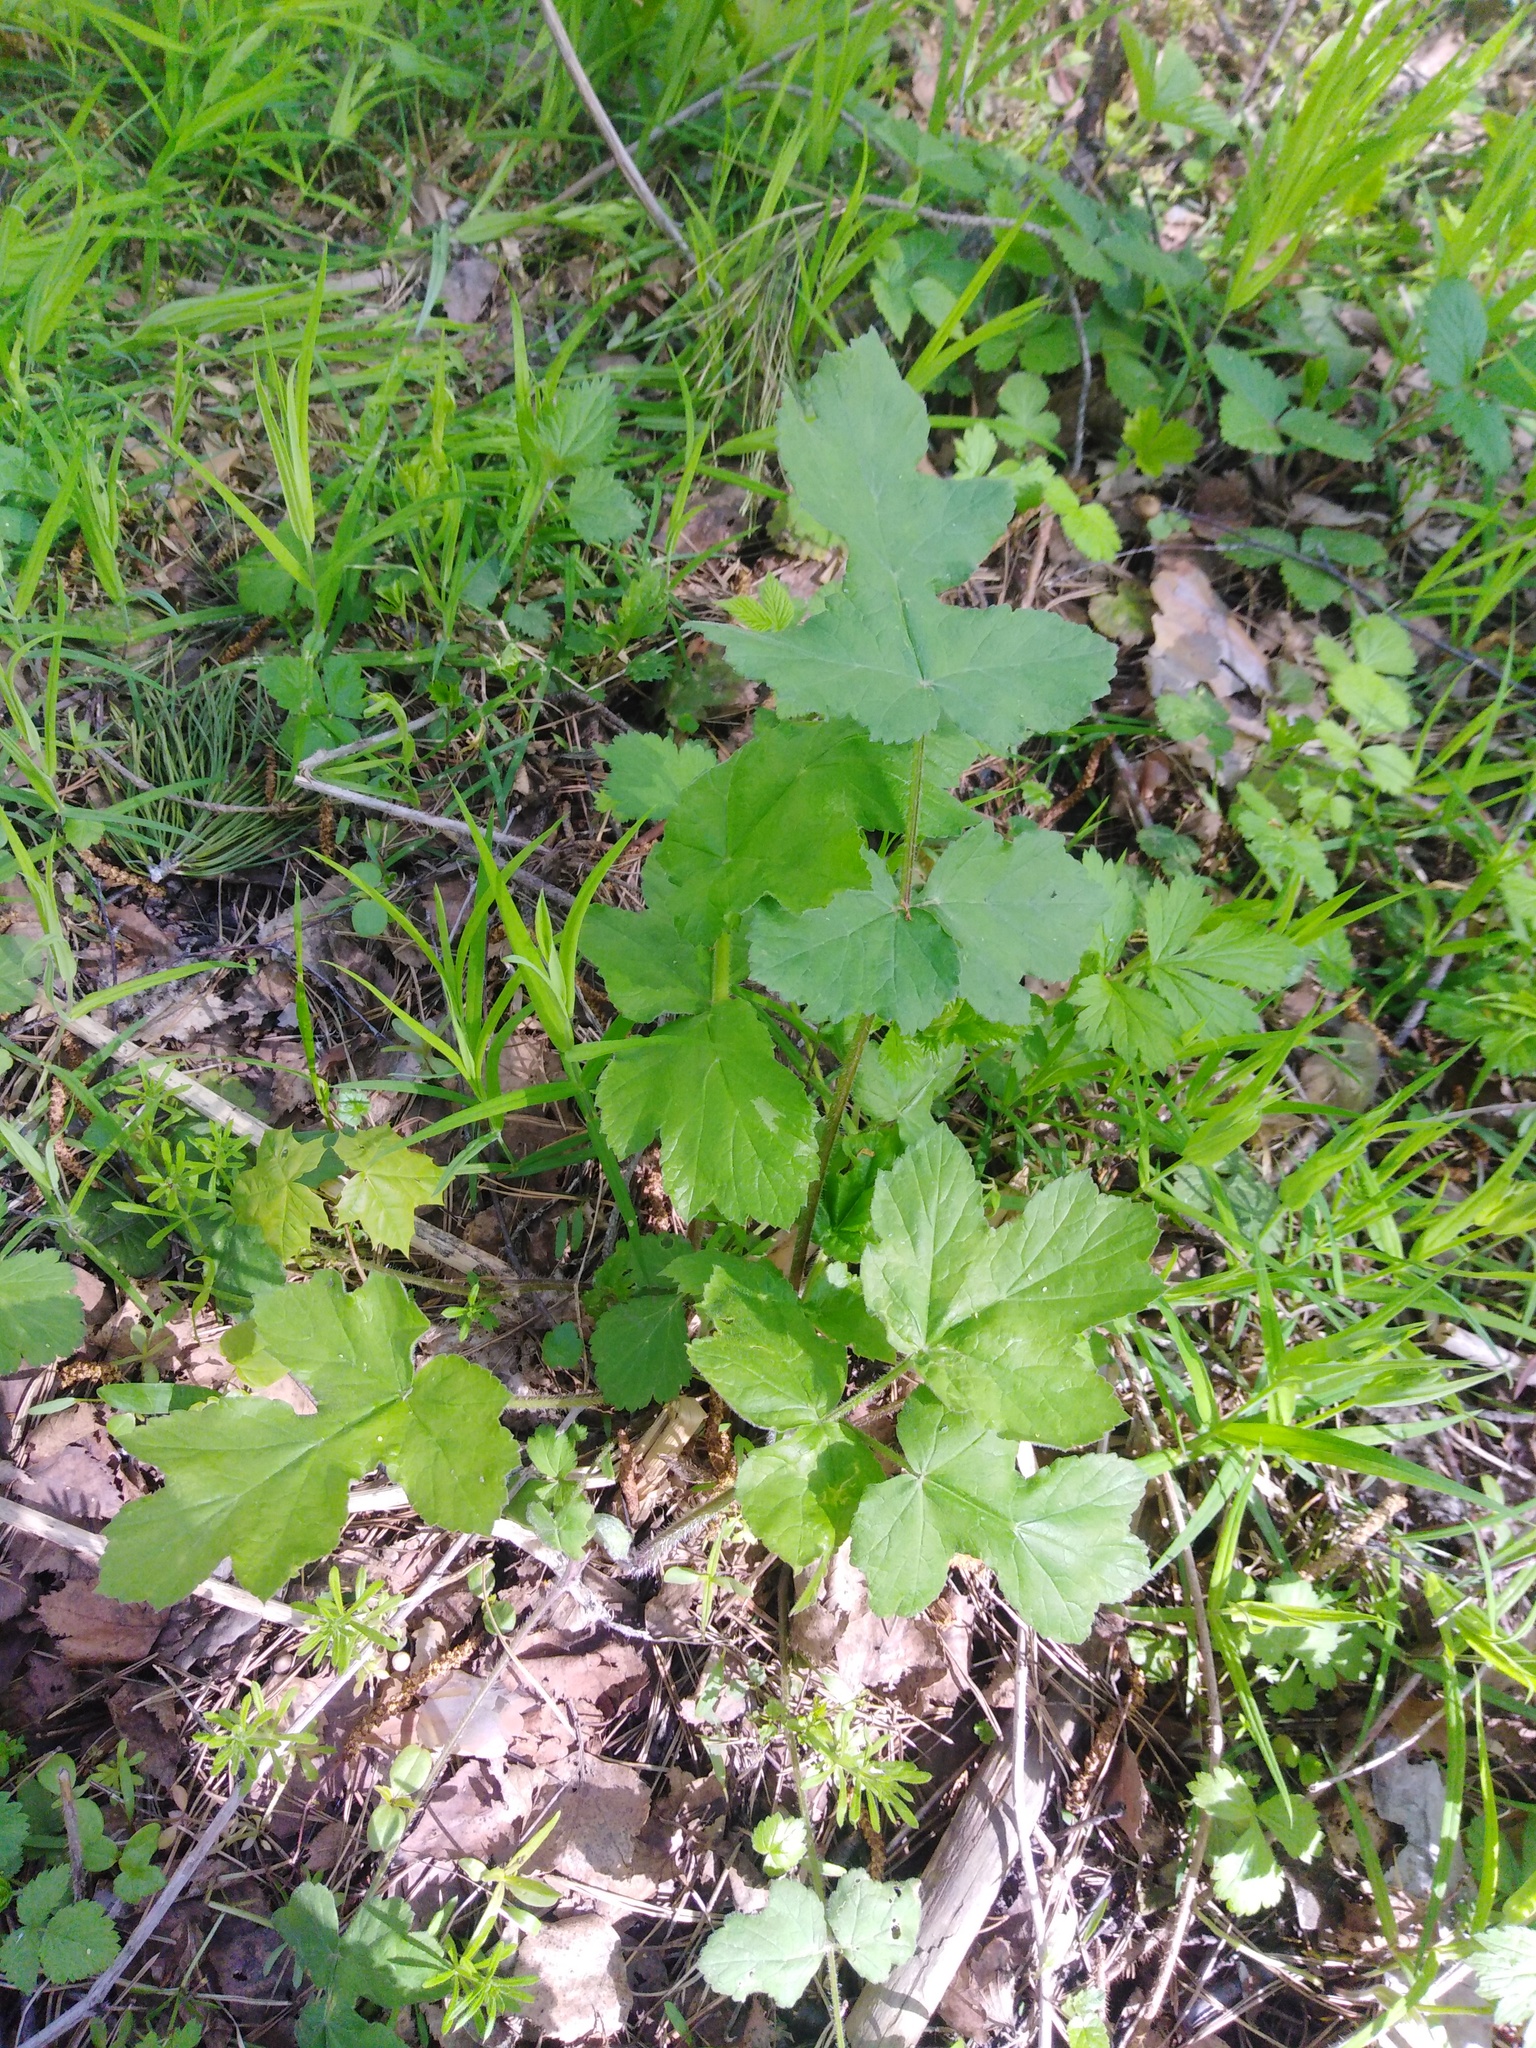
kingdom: Plantae
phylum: Tracheophyta
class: Magnoliopsida
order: Apiales
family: Apiaceae
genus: Heracleum
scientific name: Heracleum sphondylium
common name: Hogweed
